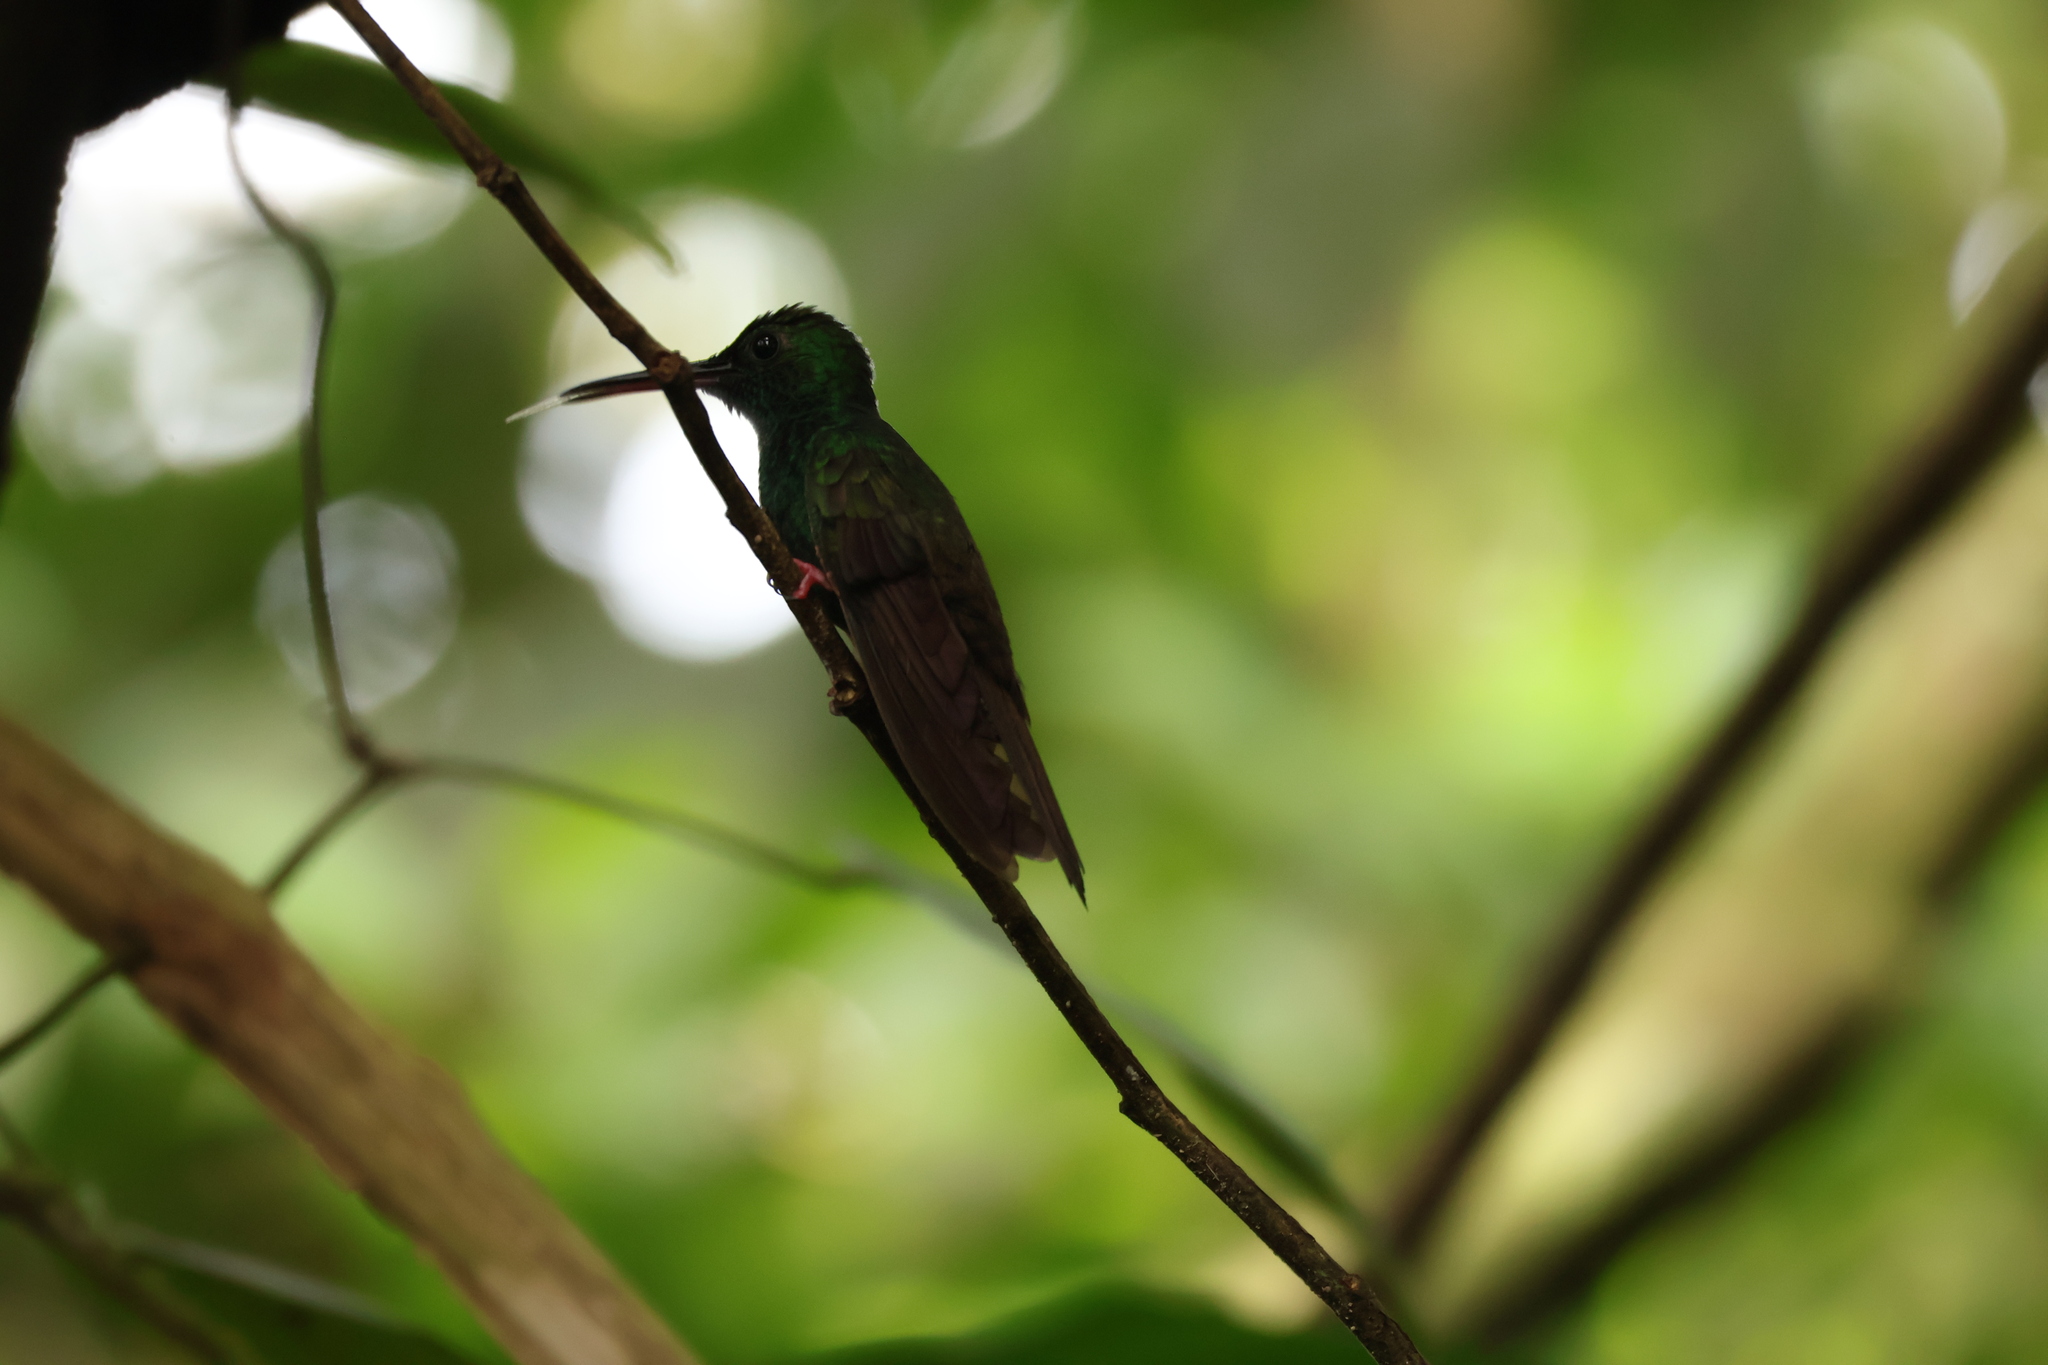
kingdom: Animalia
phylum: Chordata
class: Aves
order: Apodiformes
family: Trochilidae
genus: Chalybura
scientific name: Chalybura urochrysia
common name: Bronze-tailed plumeleteer
